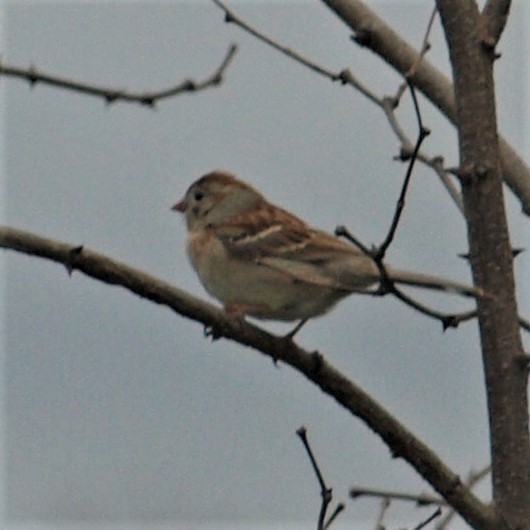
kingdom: Animalia
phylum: Chordata
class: Aves
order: Passeriformes
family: Passerellidae
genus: Spizella
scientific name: Spizella pusilla
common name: Field sparrow
